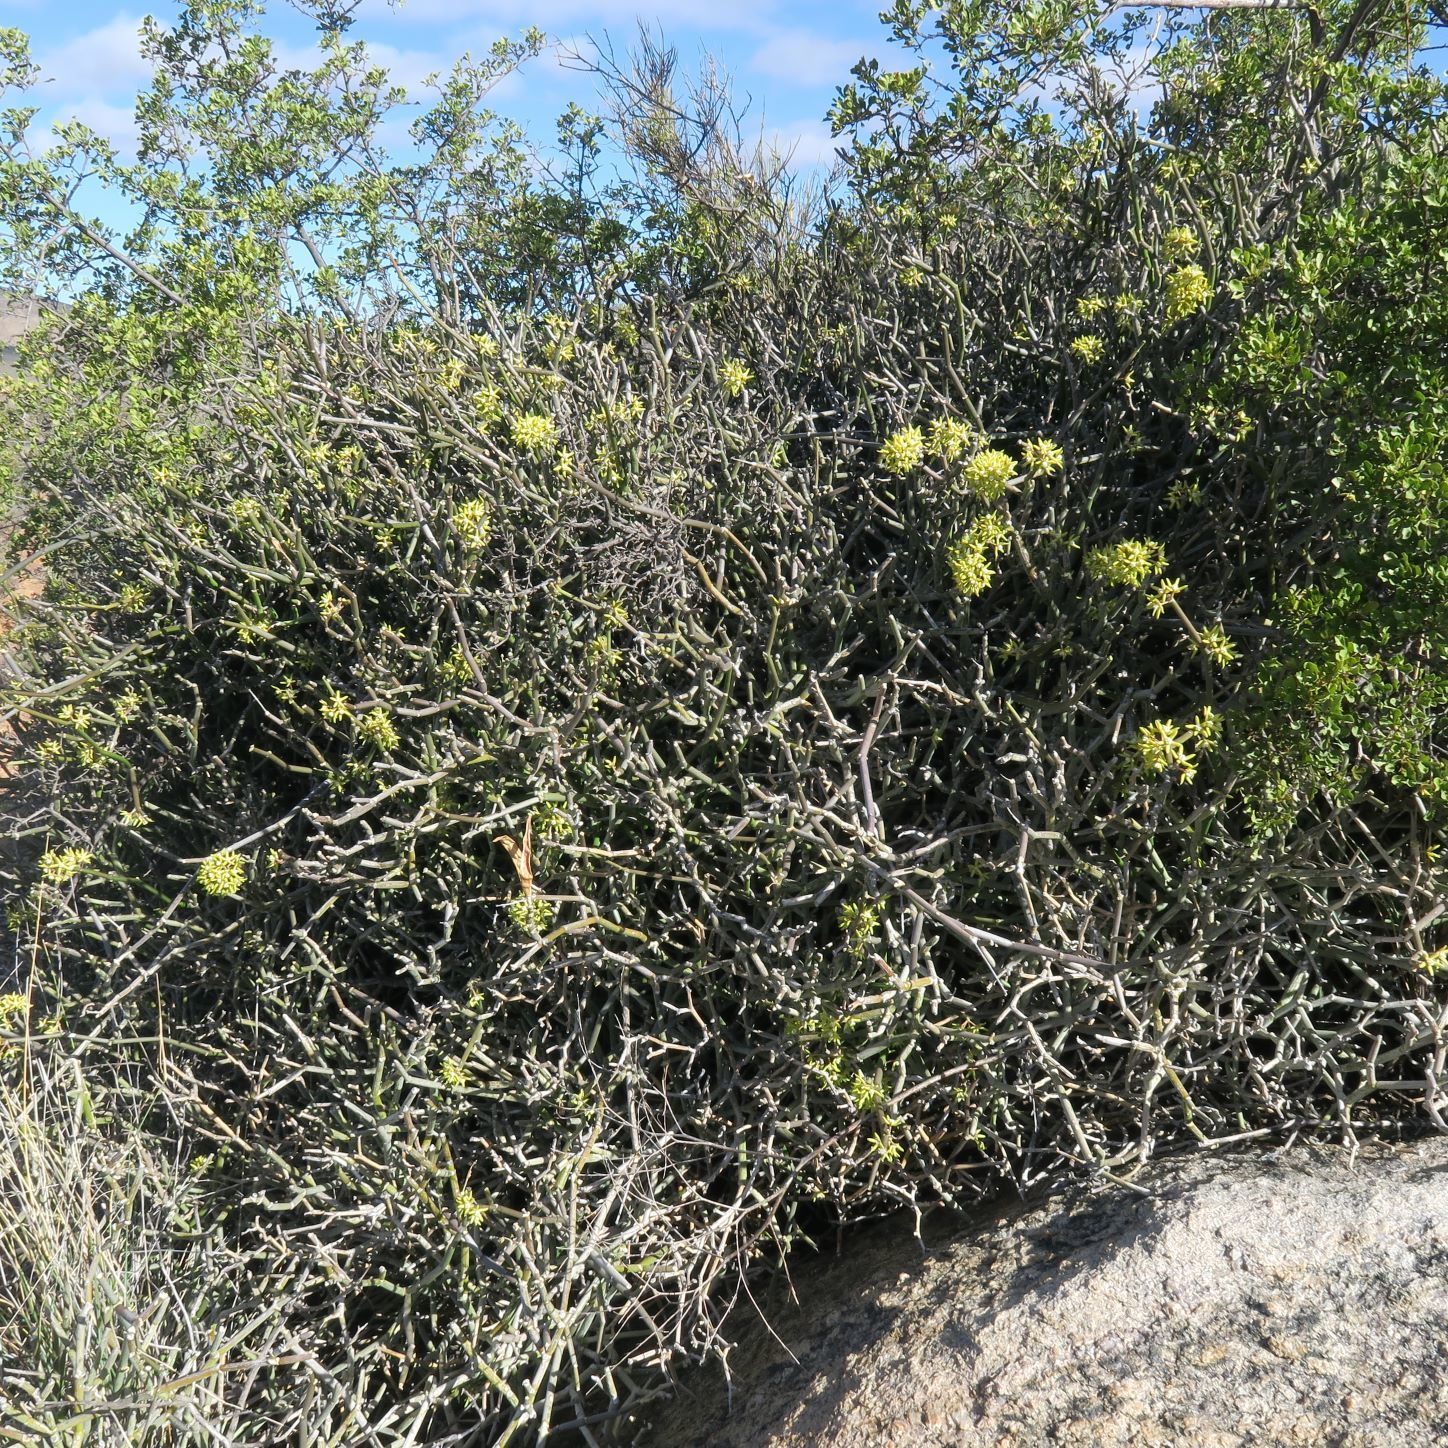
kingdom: Plantae
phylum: Tracheophyta
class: Magnoliopsida
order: Gentianales
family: Apocynaceae
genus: Cynanchum
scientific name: Cynanchum viminale
